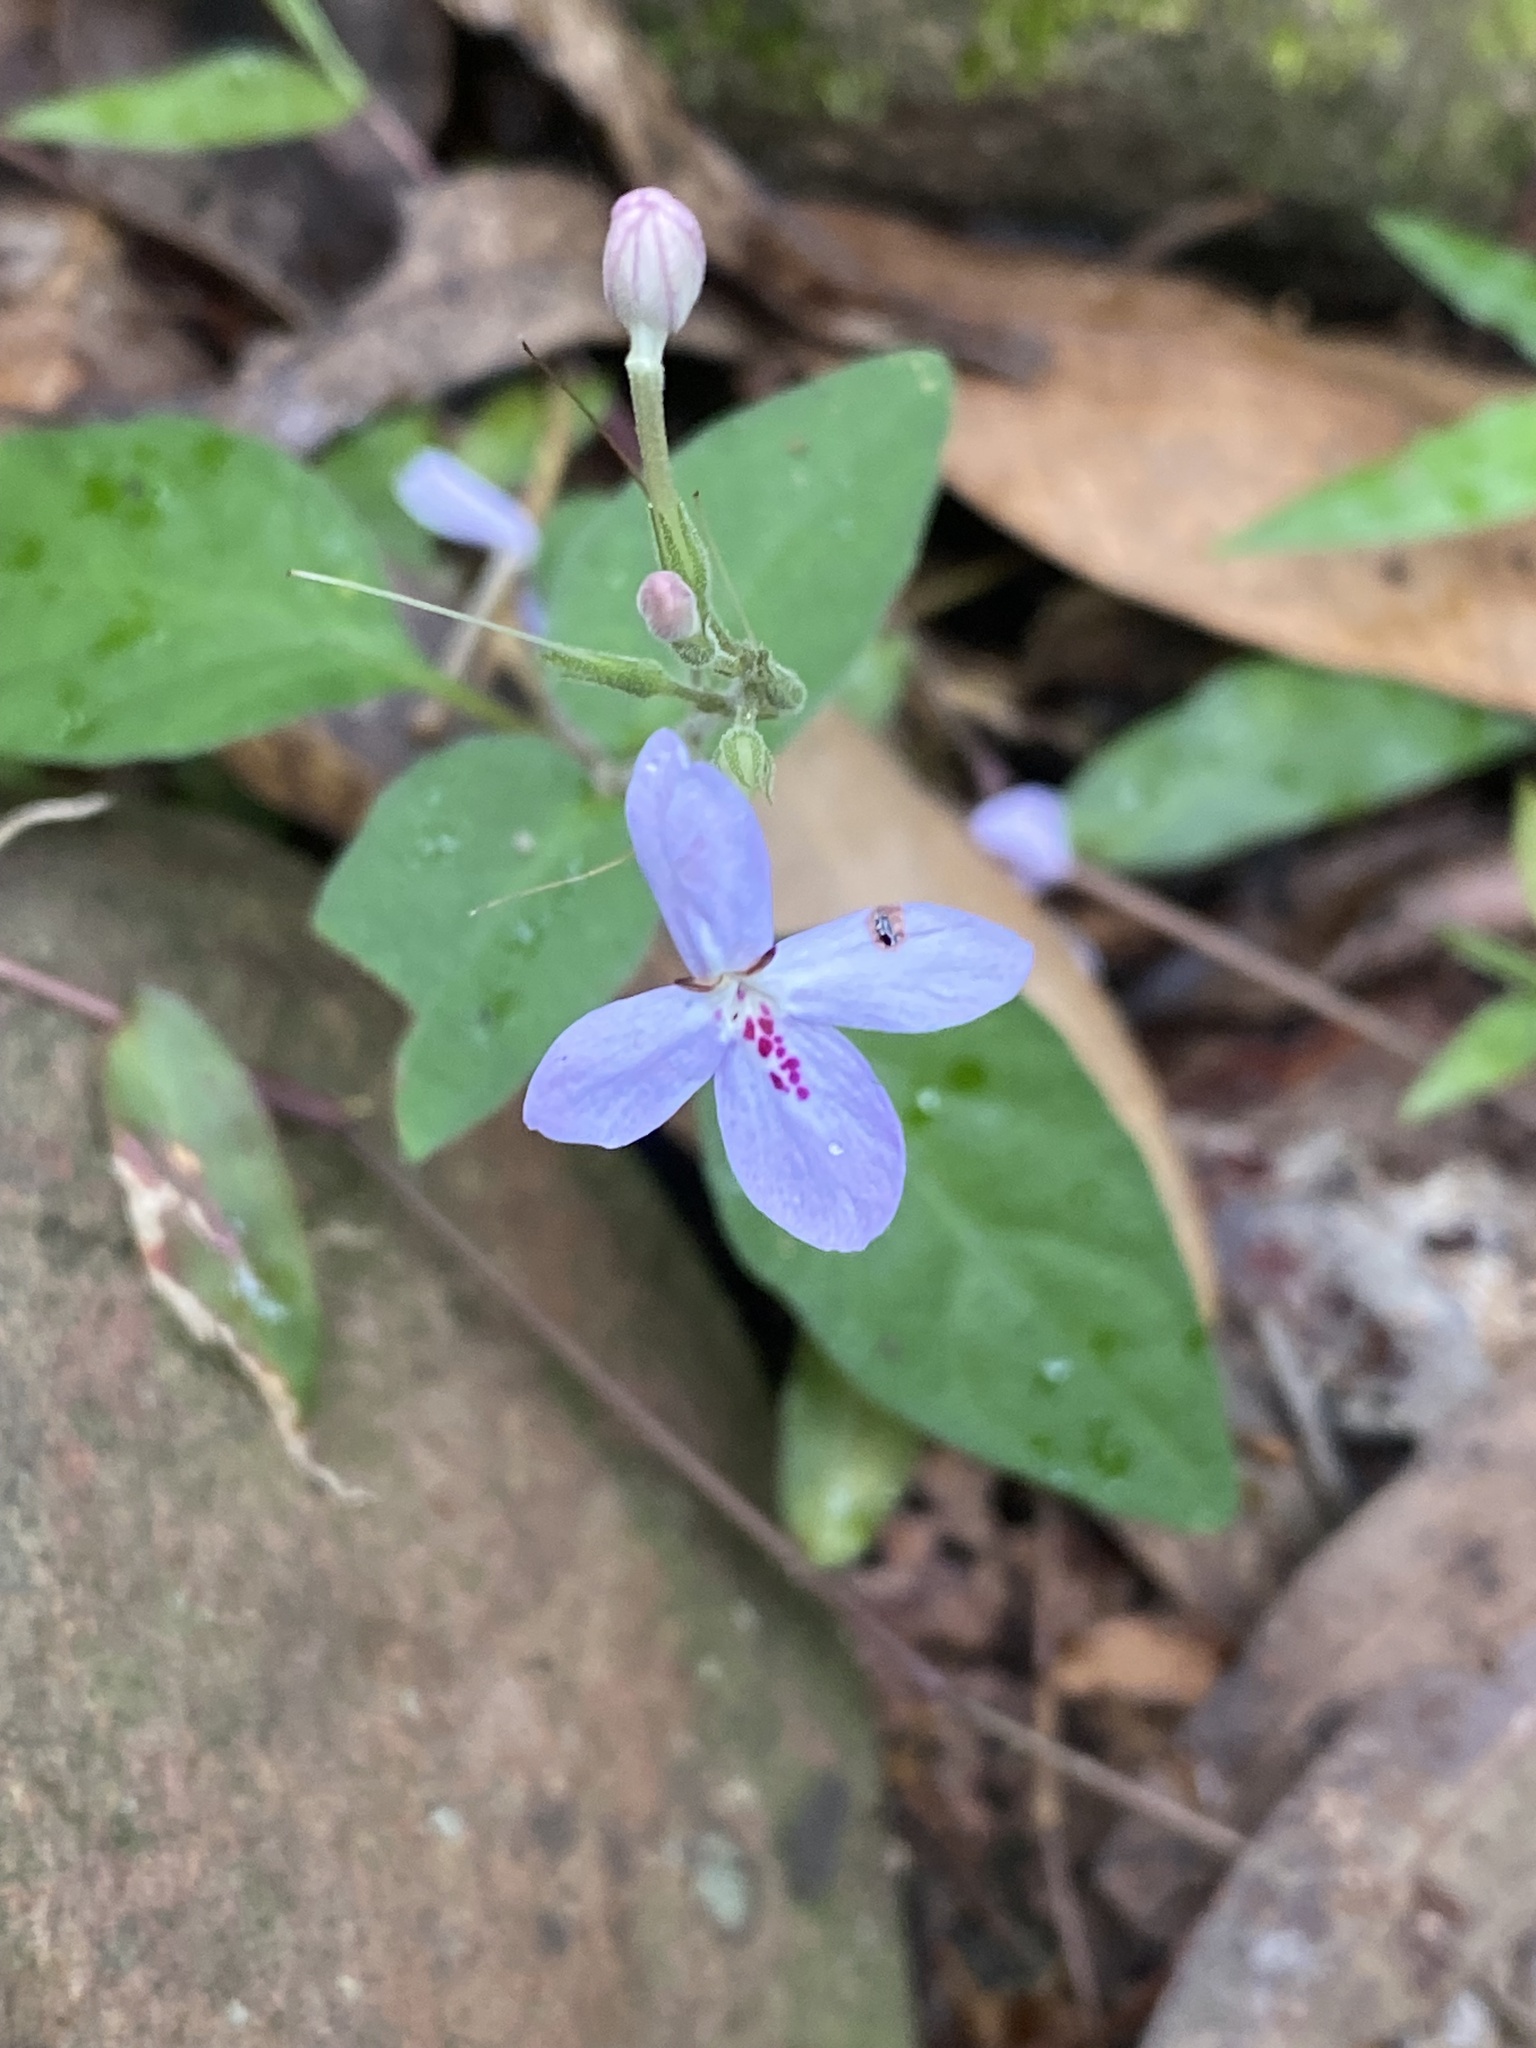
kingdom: Plantae
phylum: Tracheophyta
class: Magnoliopsida
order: Lamiales
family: Acanthaceae
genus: Pseuderanthemum
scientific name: Pseuderanthemum variabile
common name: Night and afternoon
